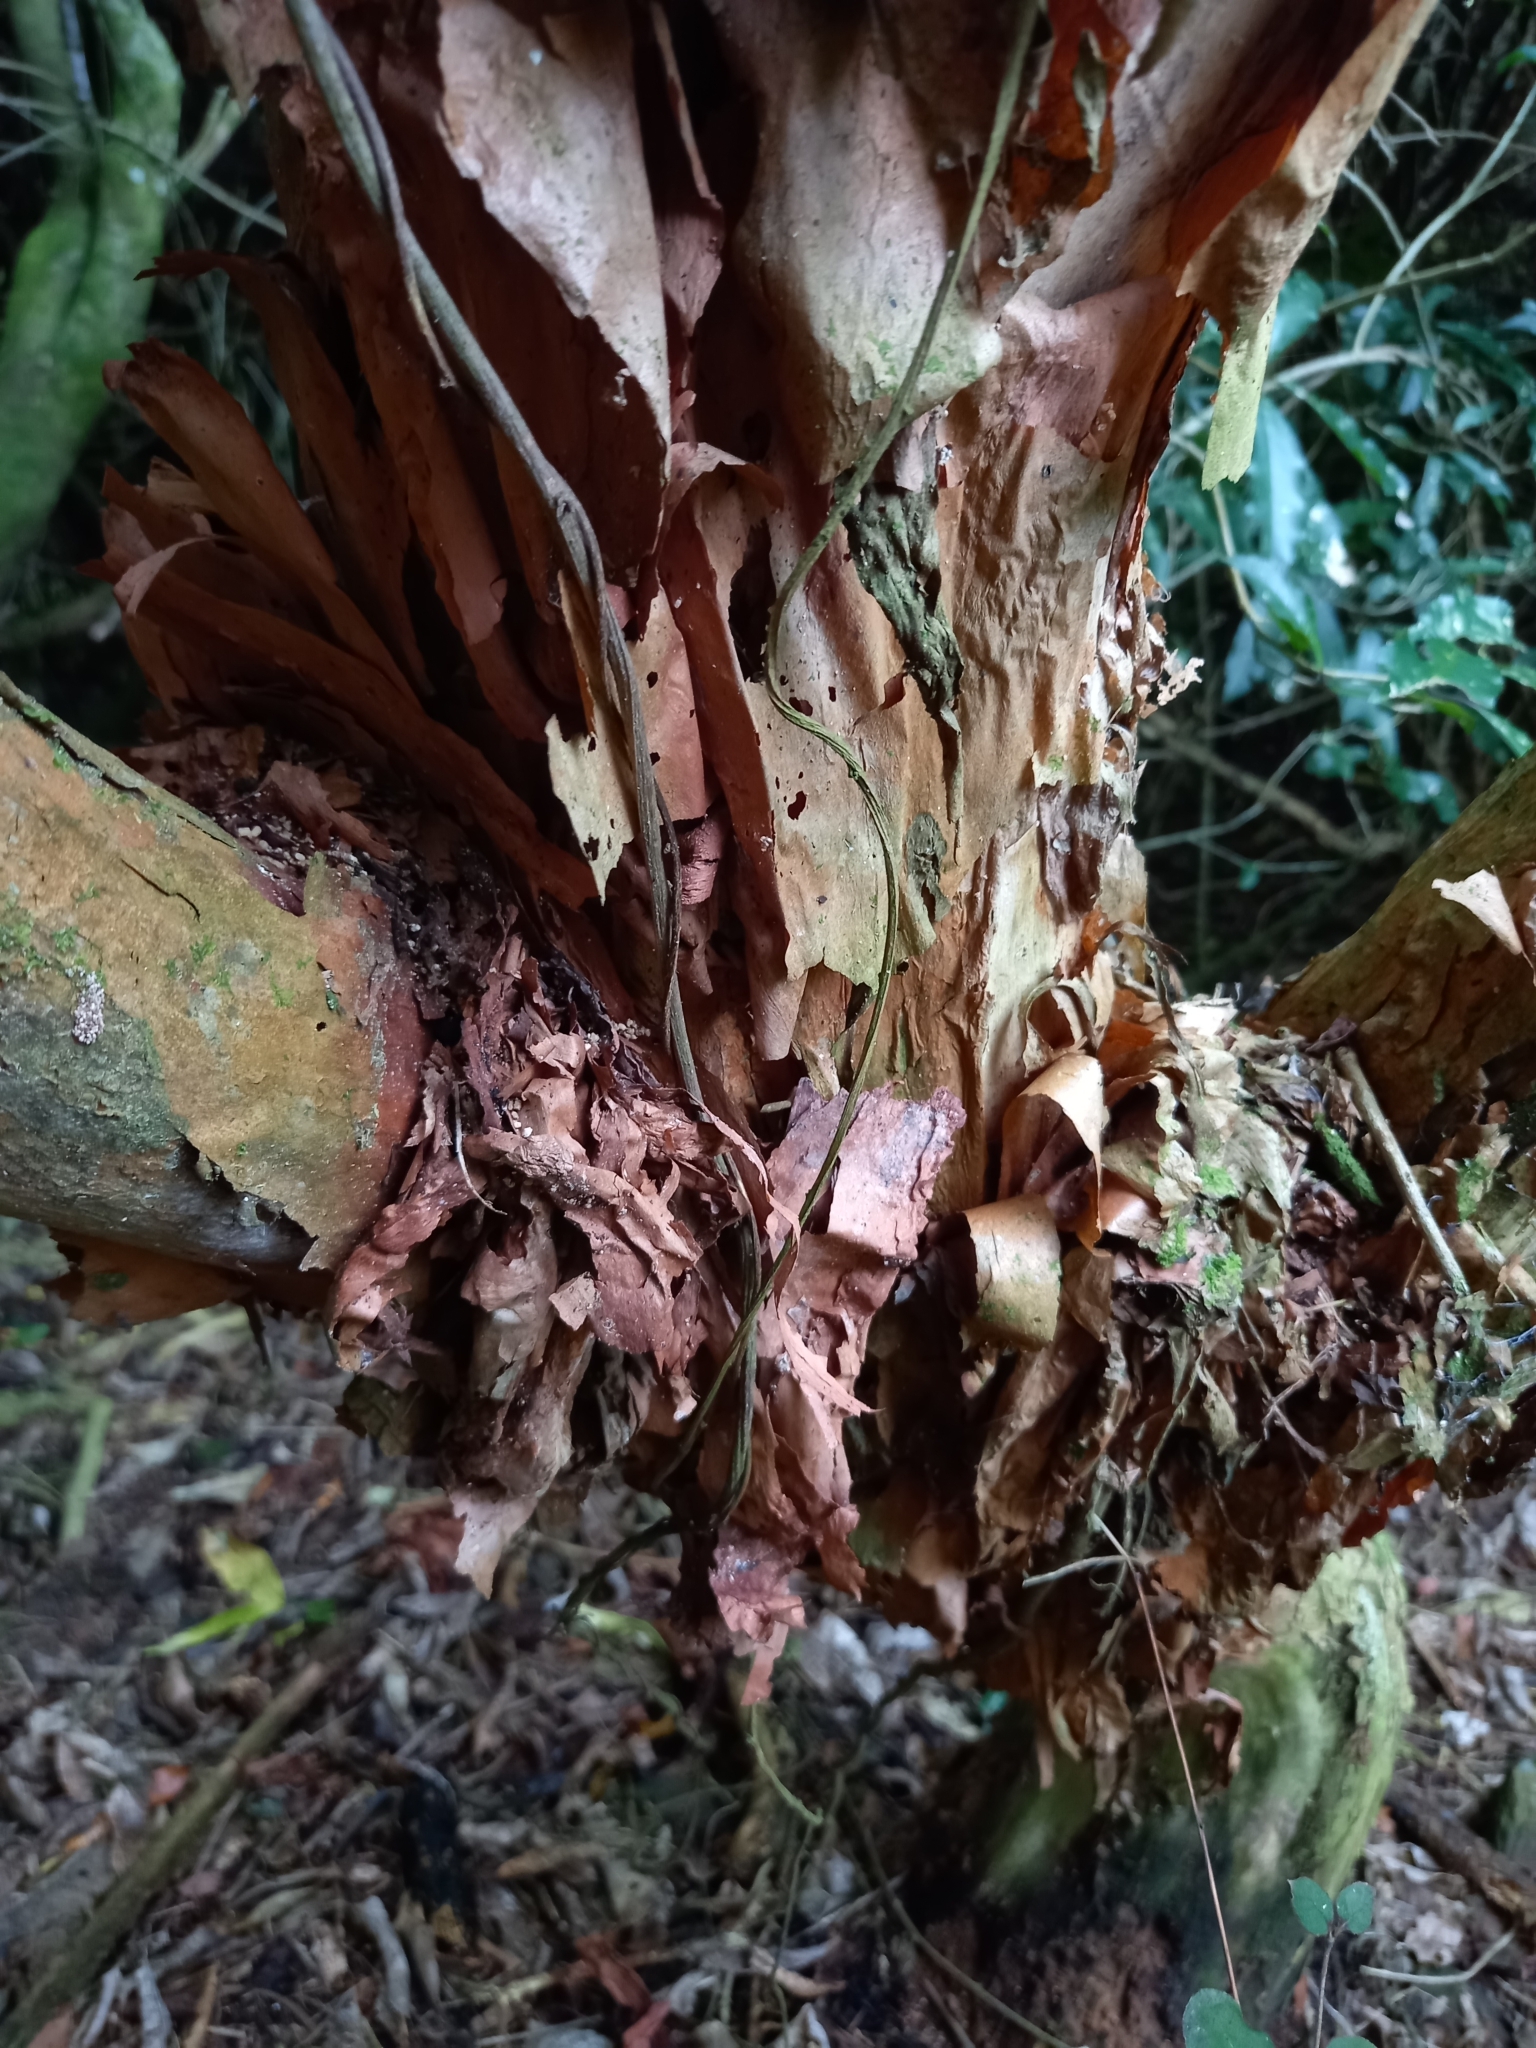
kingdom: Plantae
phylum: Tracheophyta
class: Magnoliopsida
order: Myrtales
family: Onagraceae
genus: Fuchsia
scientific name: Fuchsia excorticata
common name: Tree fuchsia
